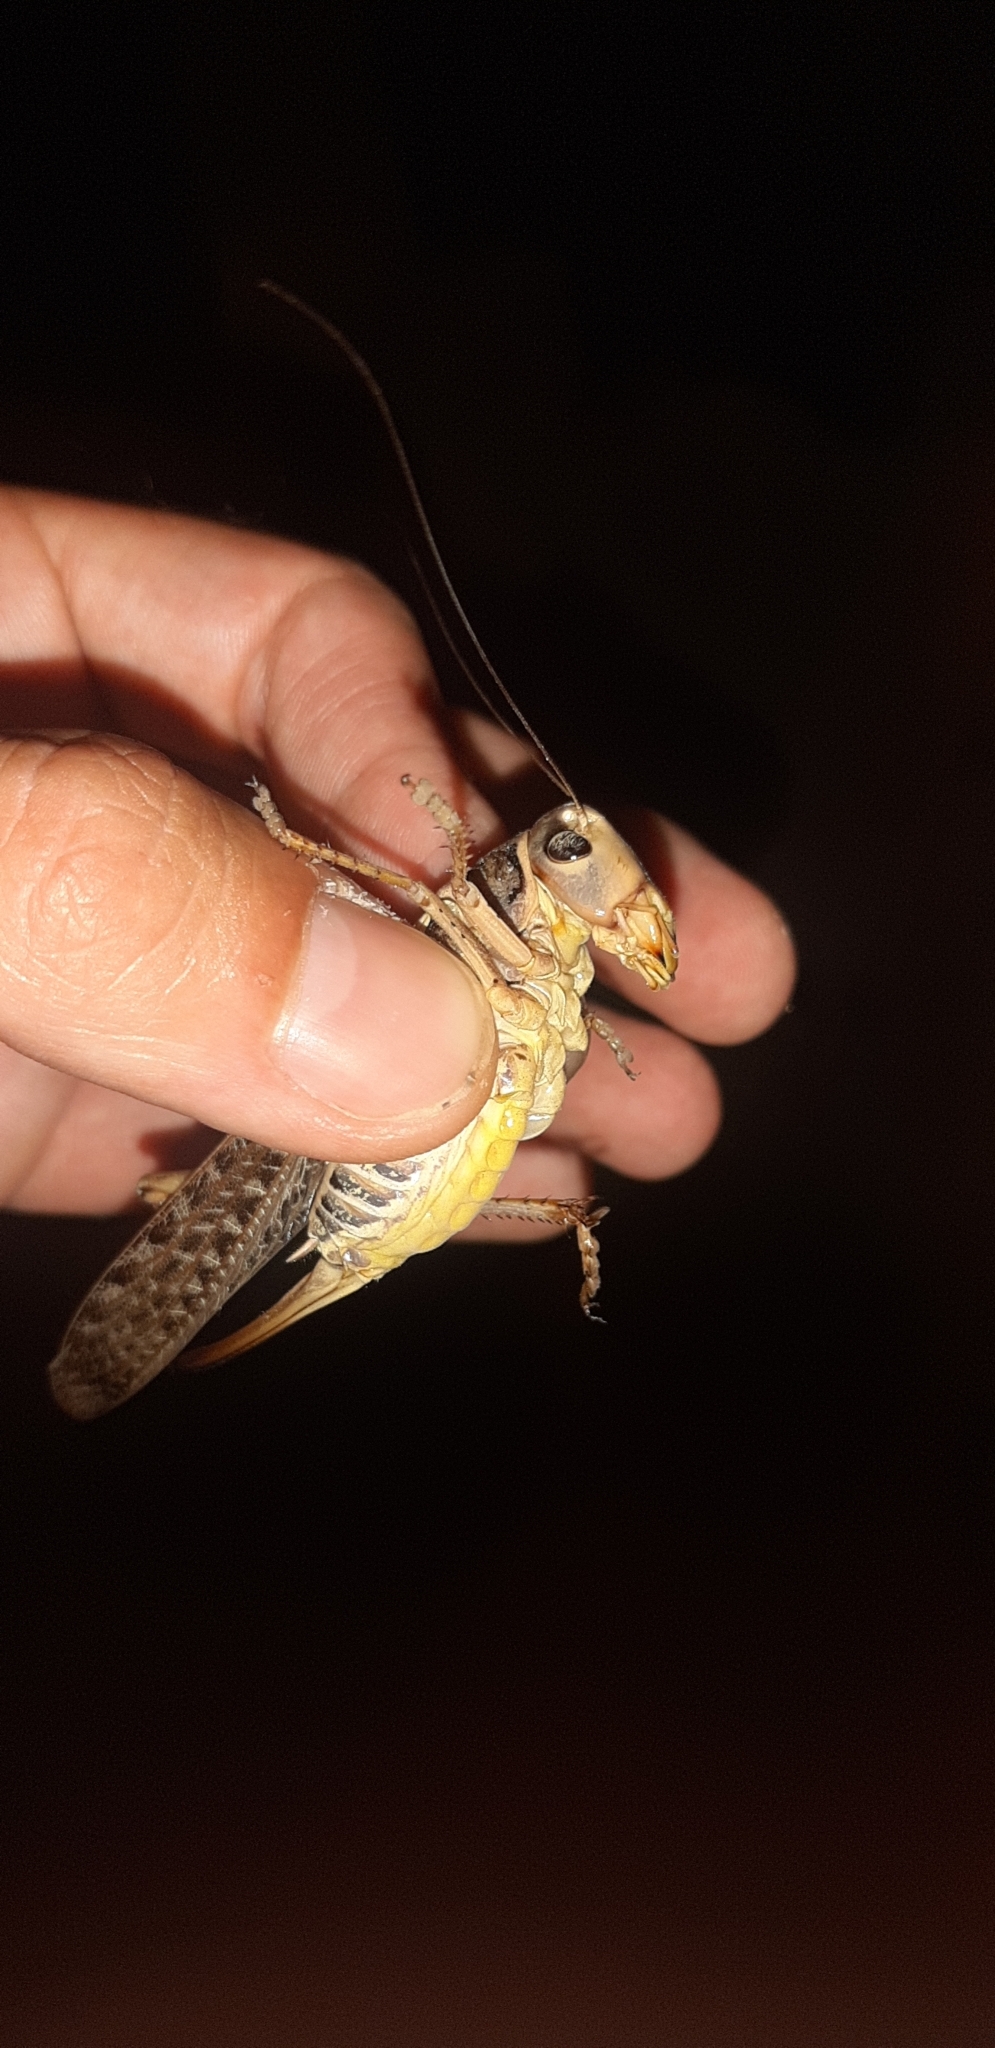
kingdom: Animalia
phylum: Arthropoda
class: Insecta
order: Orthoptera
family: Tettigoniidae
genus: Decticus
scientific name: Decticus albifrons
